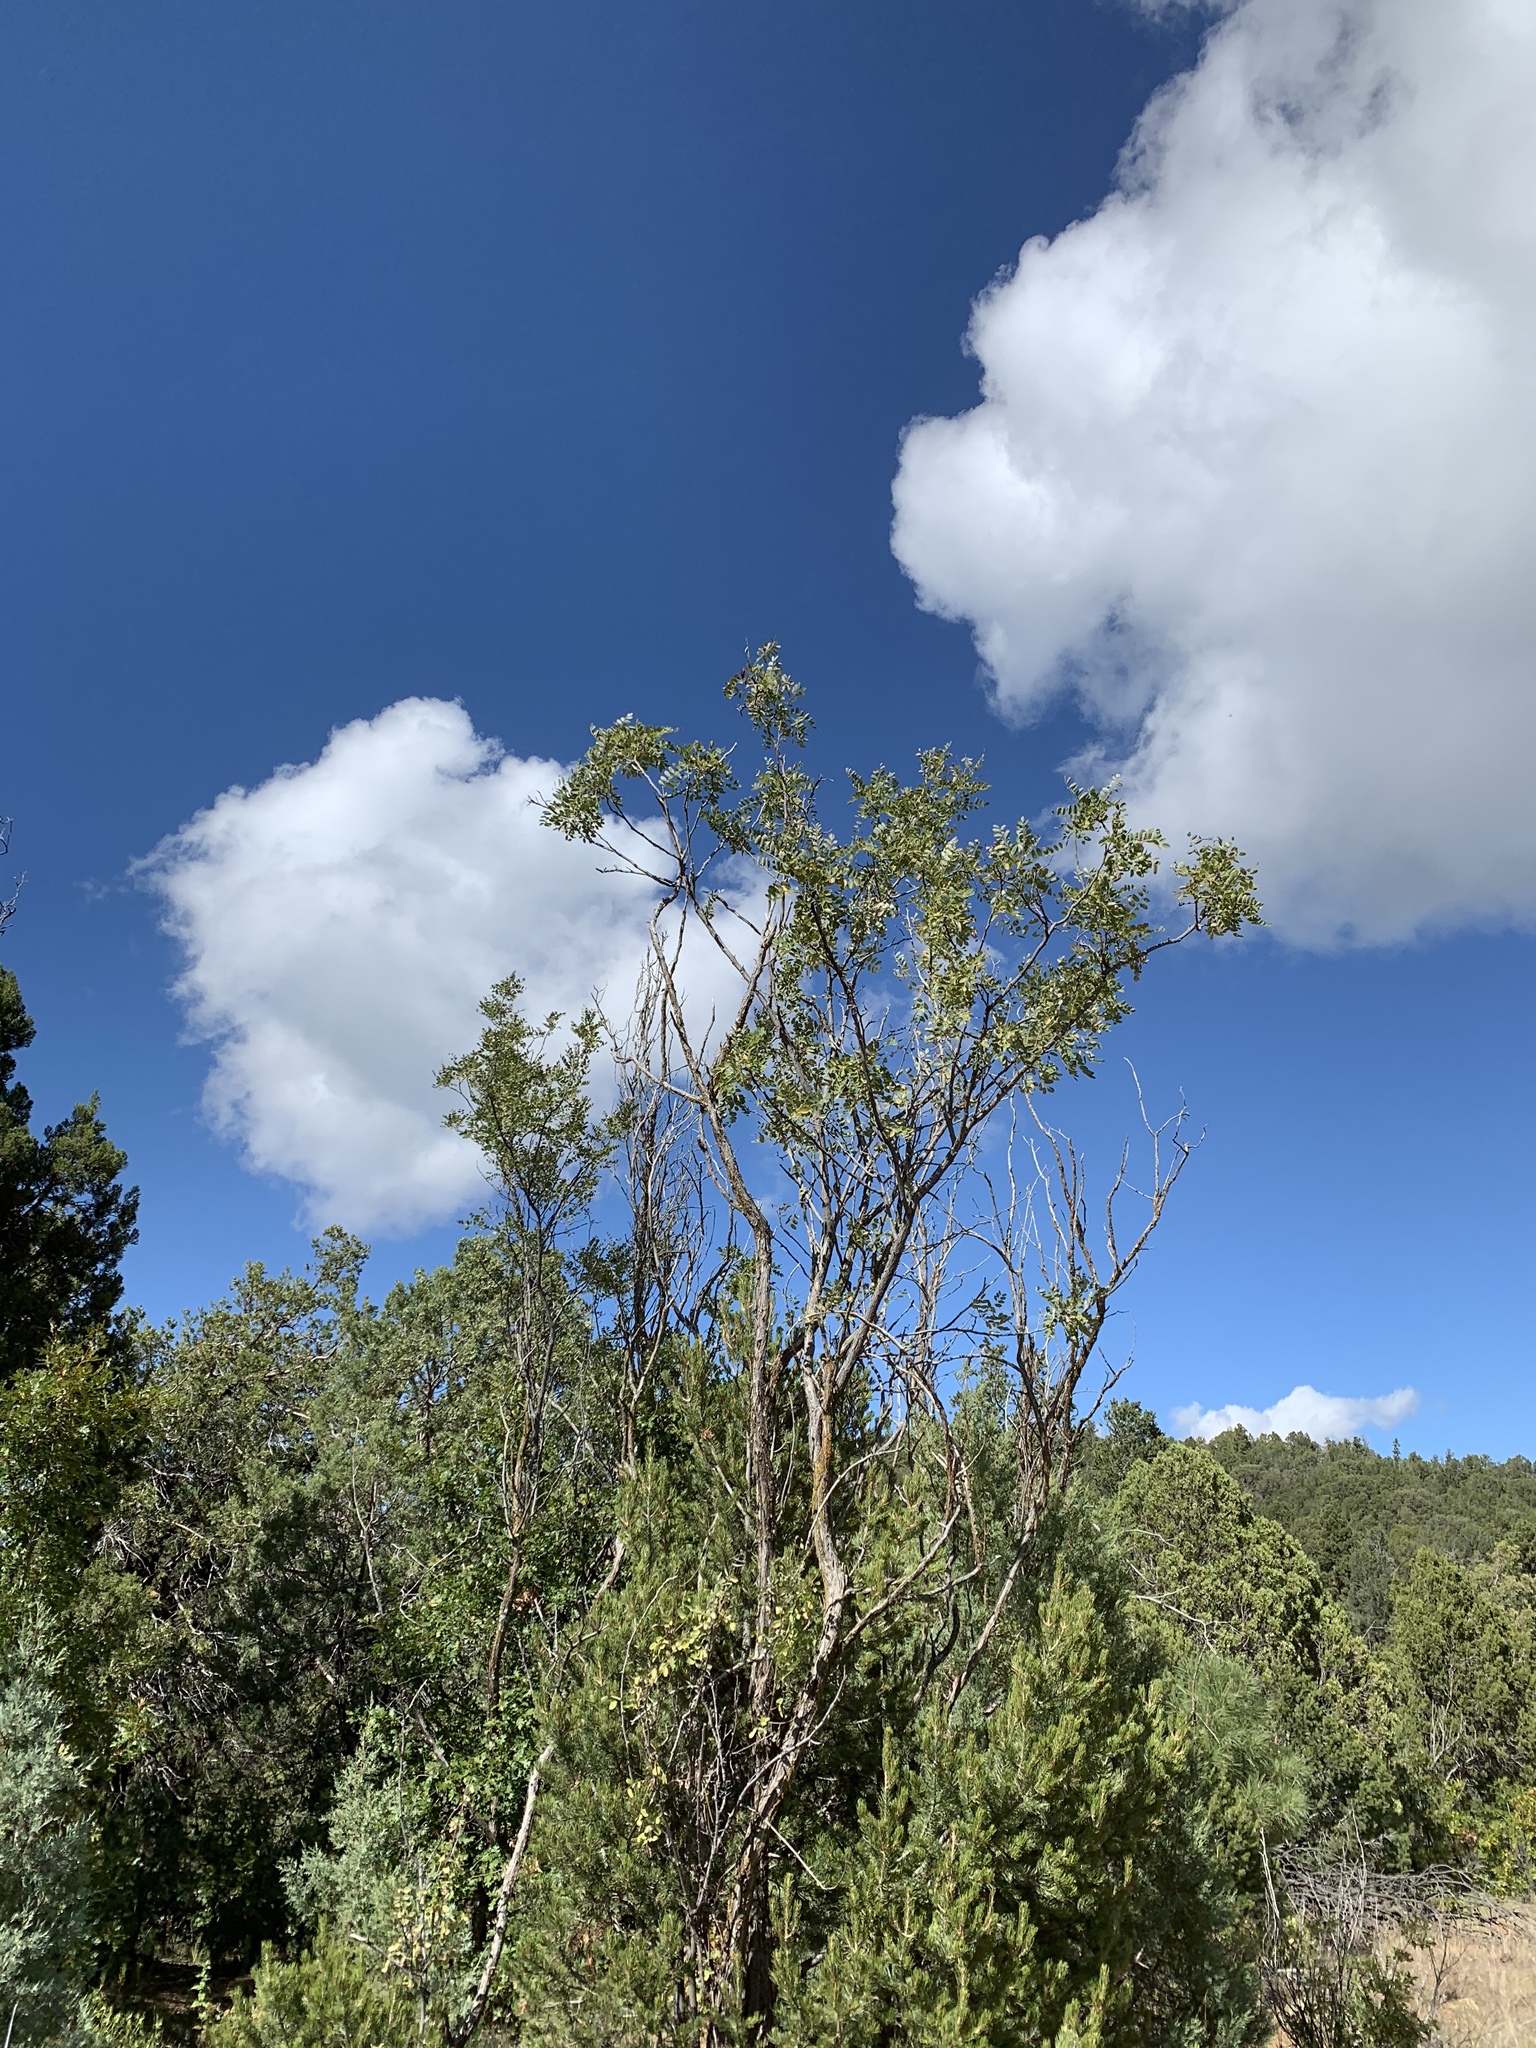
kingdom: Plantae
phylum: Tracheophyta
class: Magnoliopsida
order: Fabales
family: Fabaceae
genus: Robinia
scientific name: Robinia neomexicana
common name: New mexico locust
